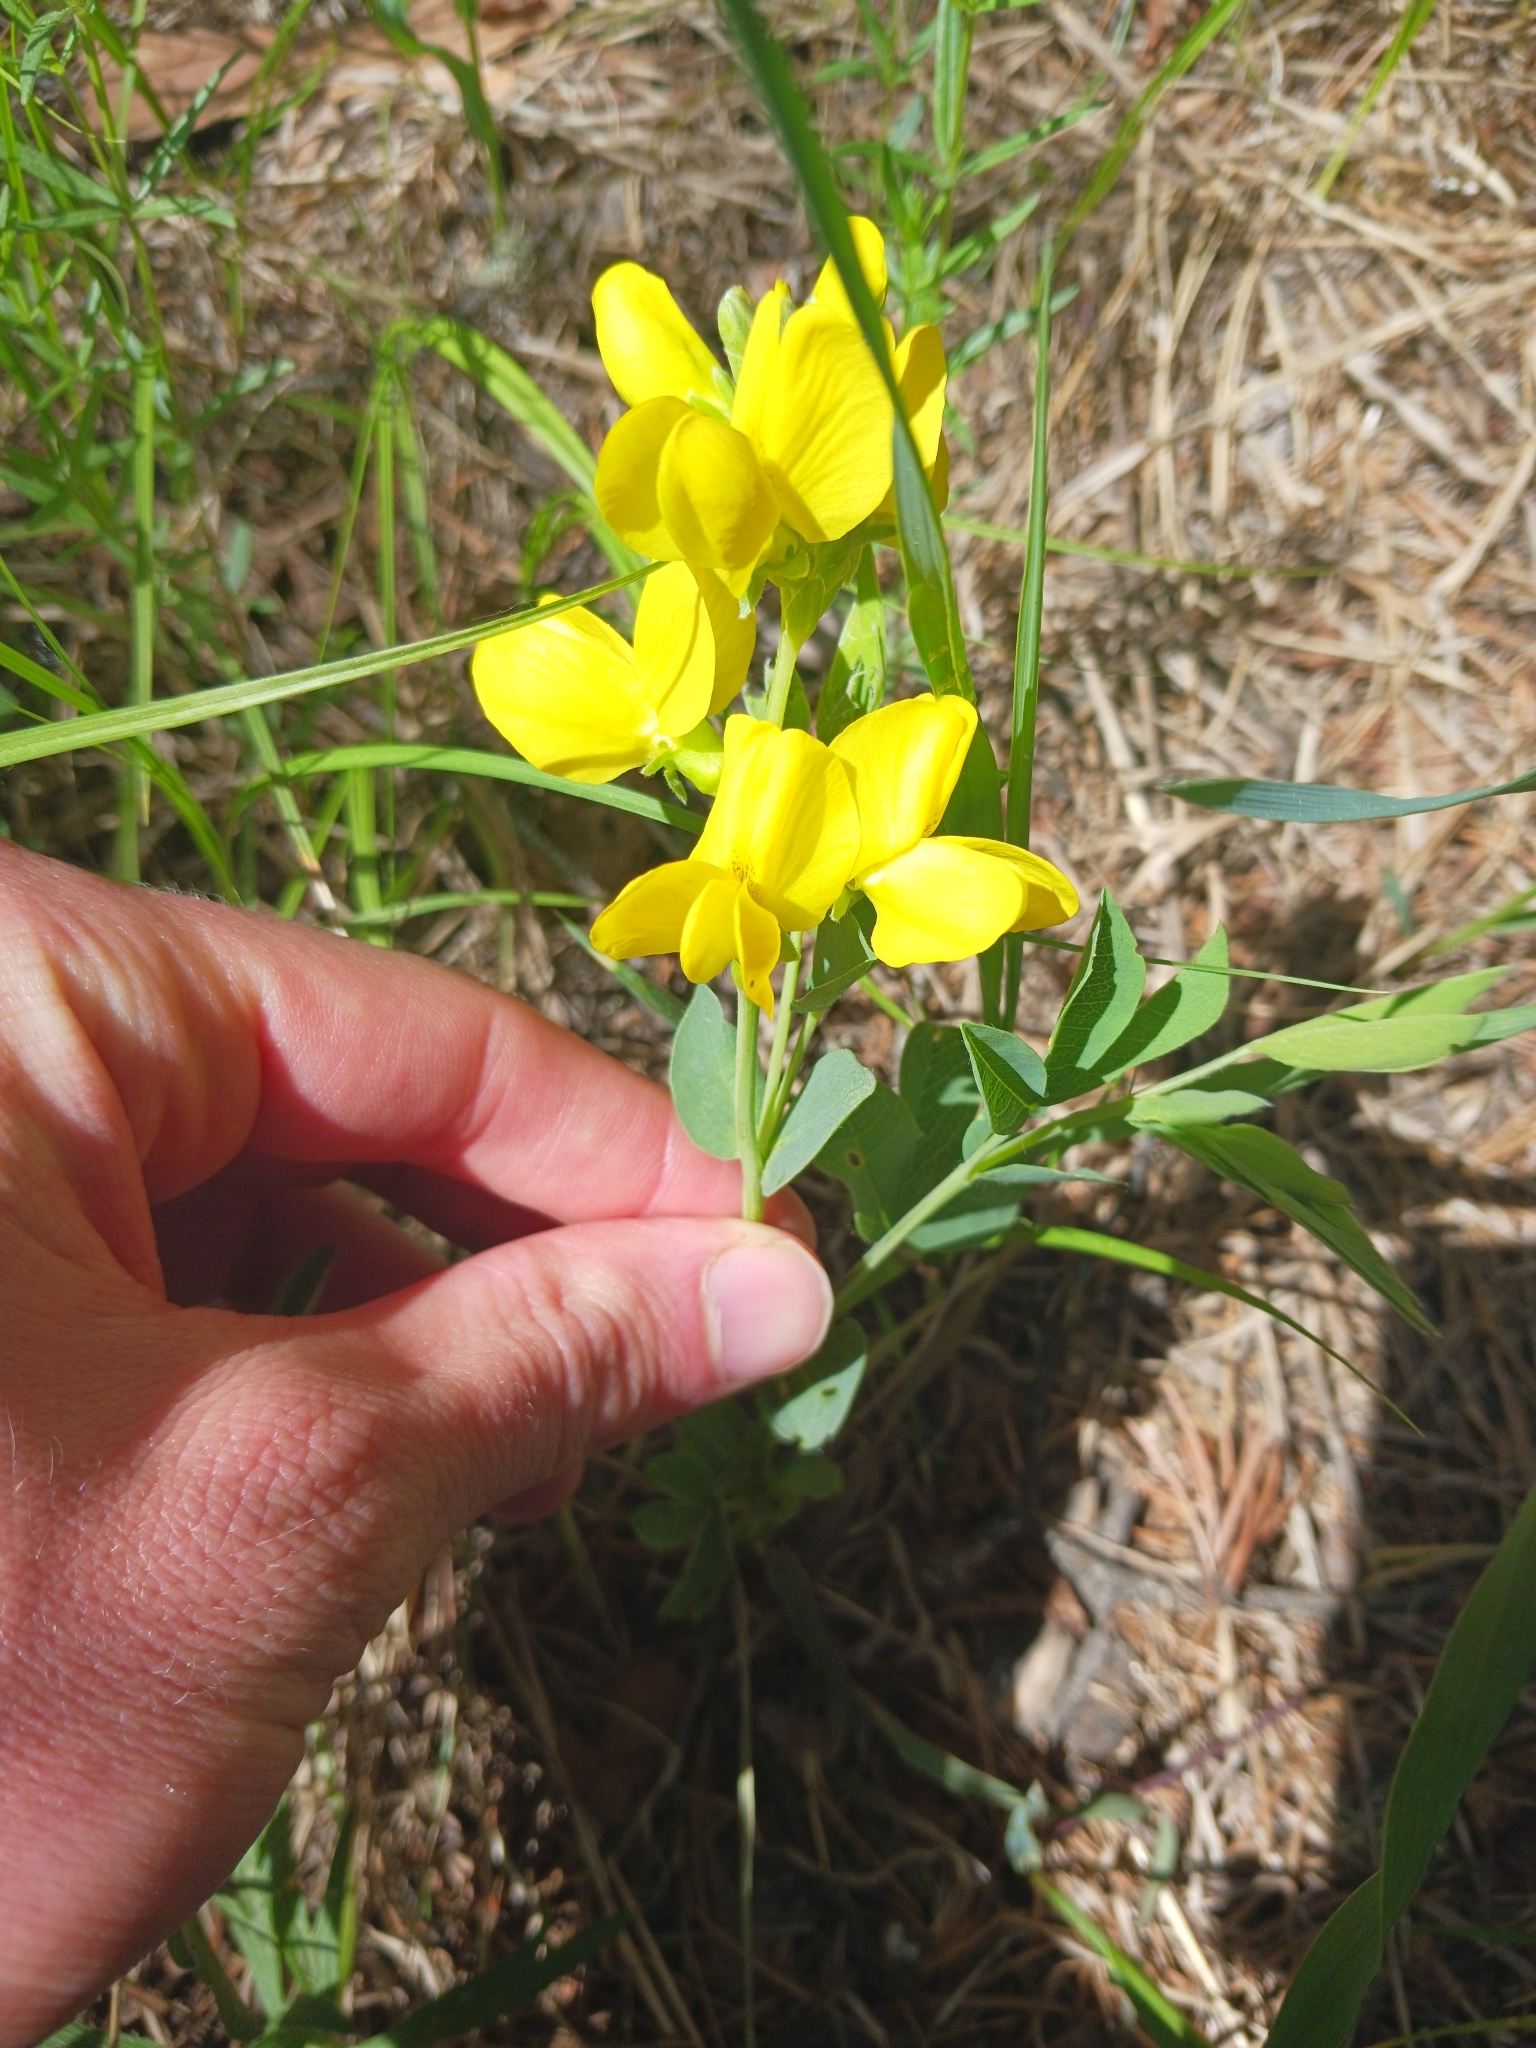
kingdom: Plantae
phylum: Tracheophyta
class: Magnoliopsida
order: Fabales
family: Fabaceae
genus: Thermopsis
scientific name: Thermopsis rhombifolia
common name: Circle-pod-pea
